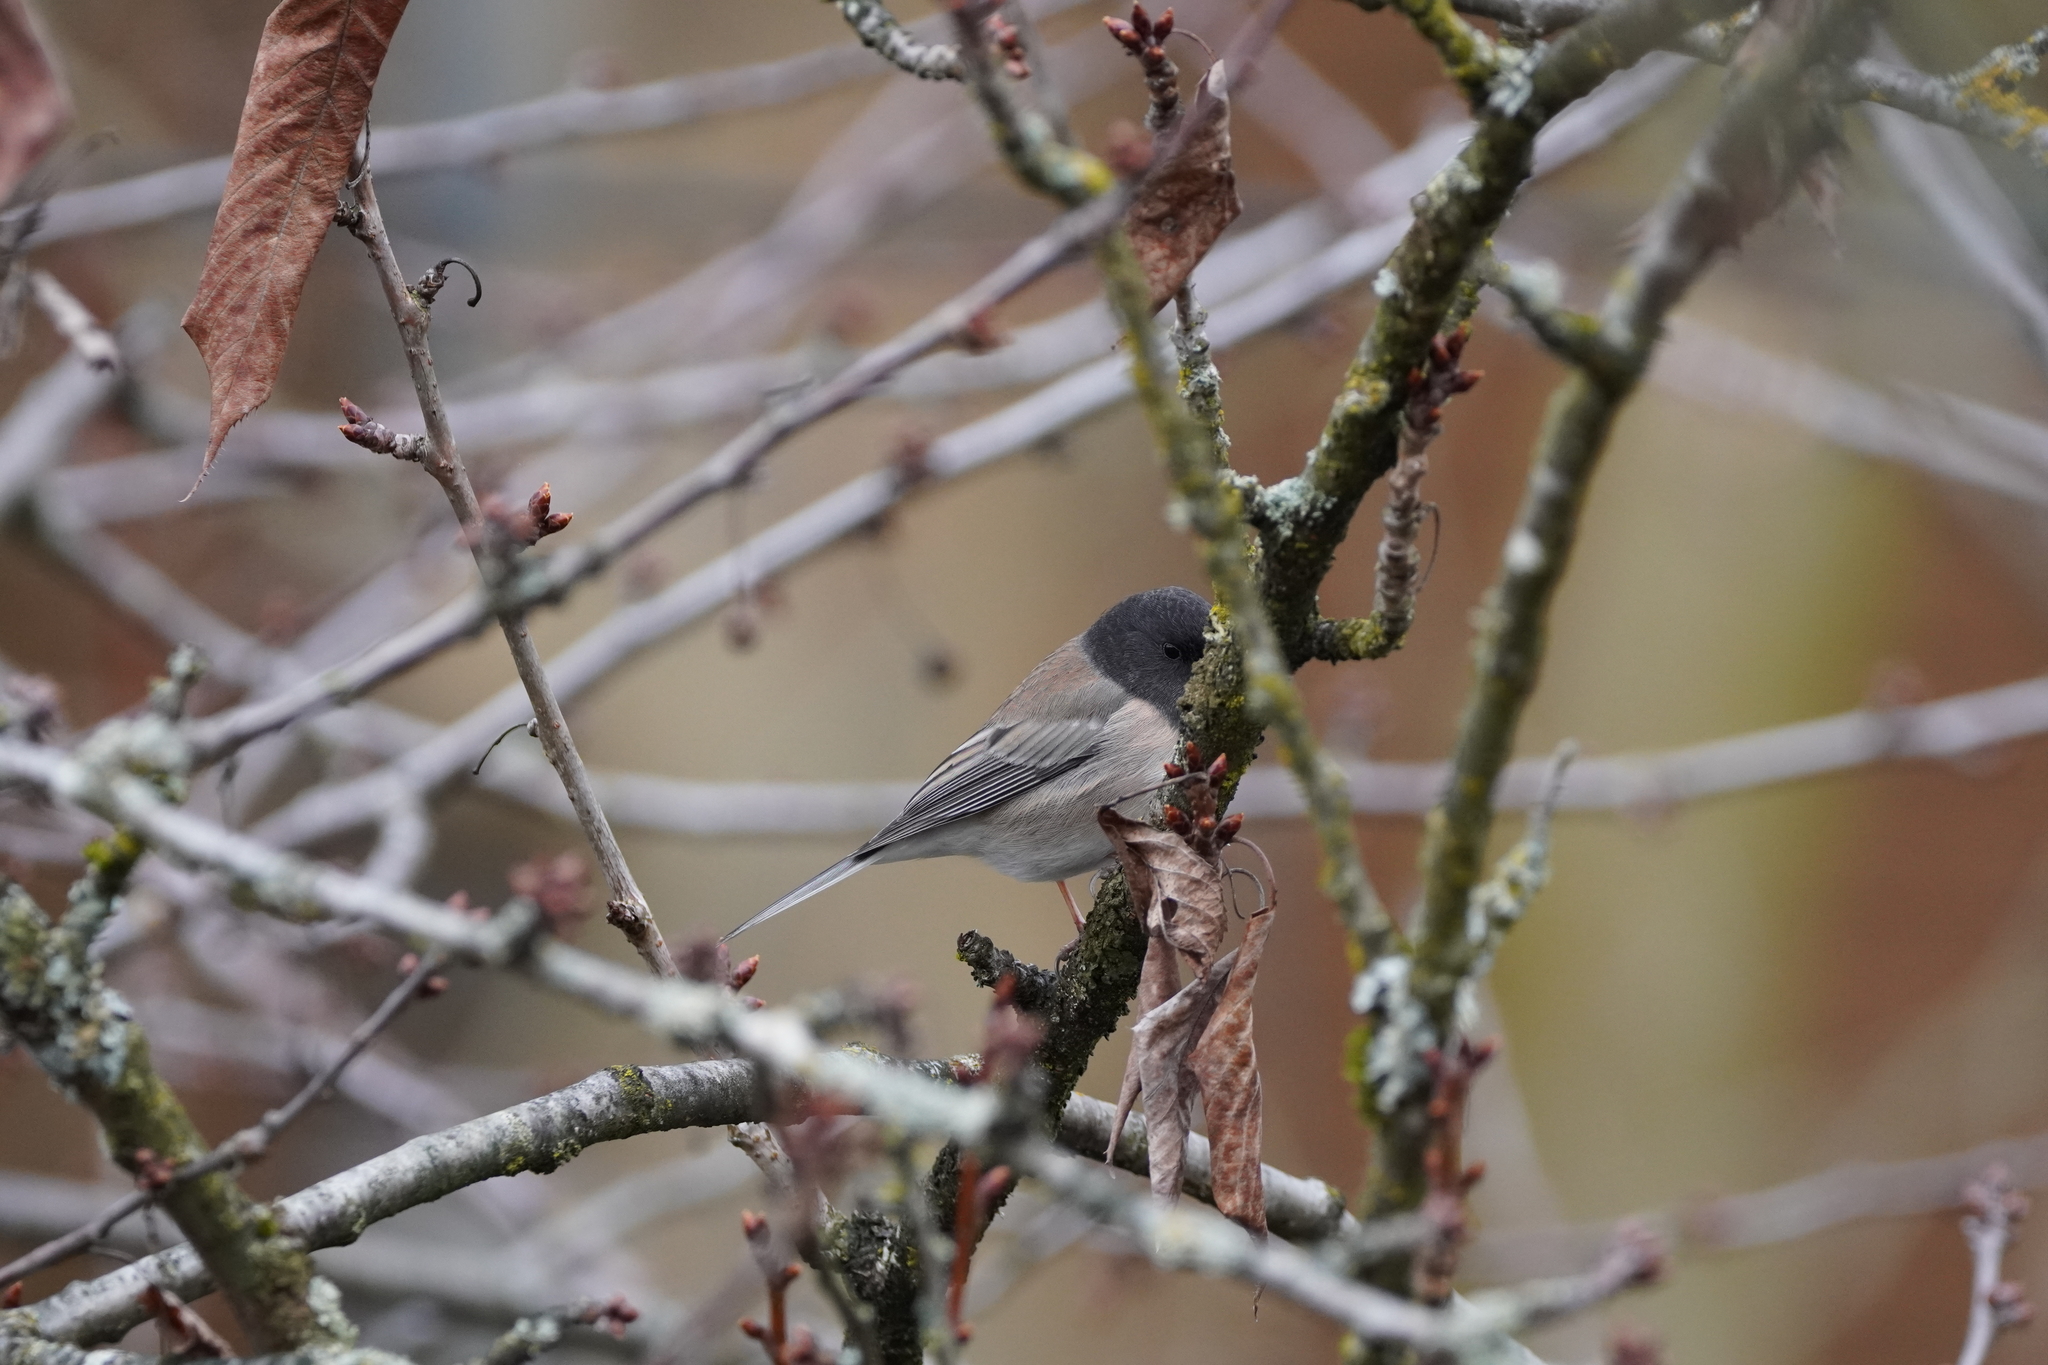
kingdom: Animalia
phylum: Chordata
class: Aves
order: Passeriformes
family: Passerellidae
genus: Junco
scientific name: Junco hyemalis
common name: Dark-eyed junco
